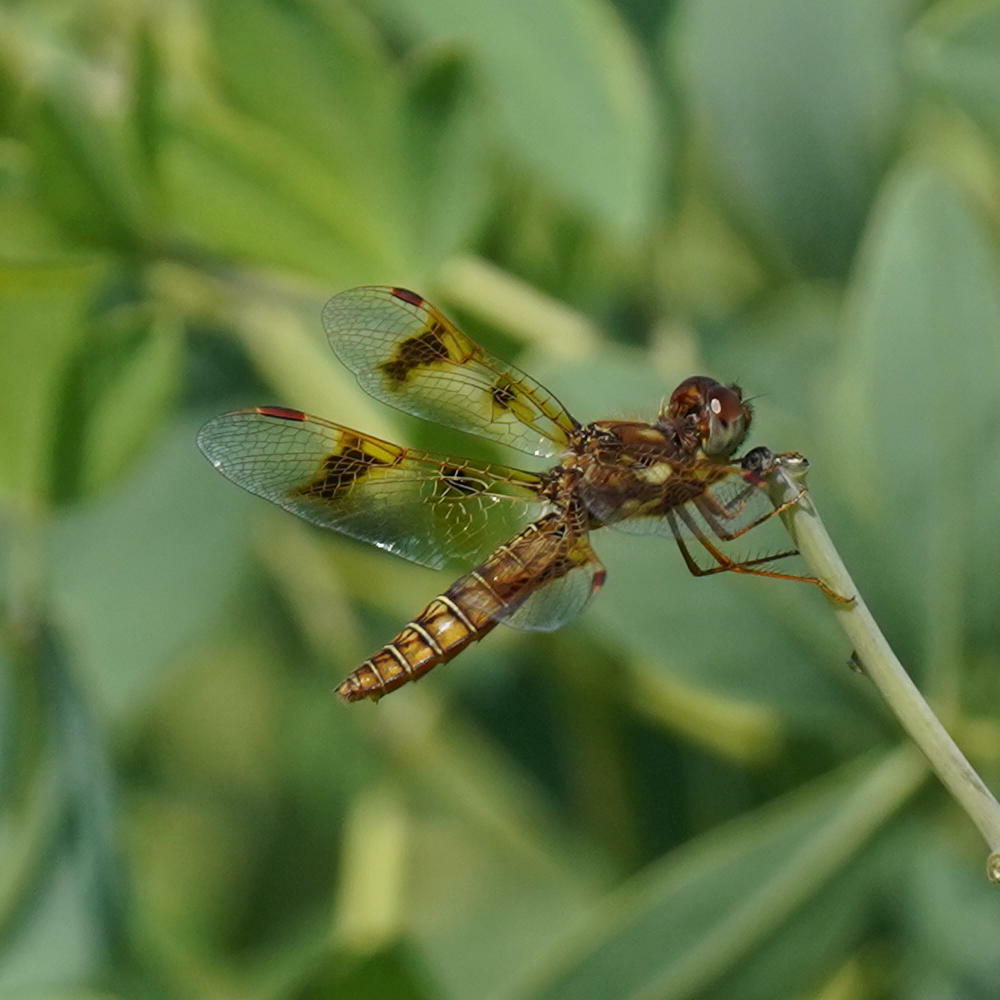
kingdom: Animalia
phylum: Arthropoda
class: Insecta
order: Odonata
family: Libellulidae
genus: Perithemis
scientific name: Perithemis tenera
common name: Eastern amberwing
